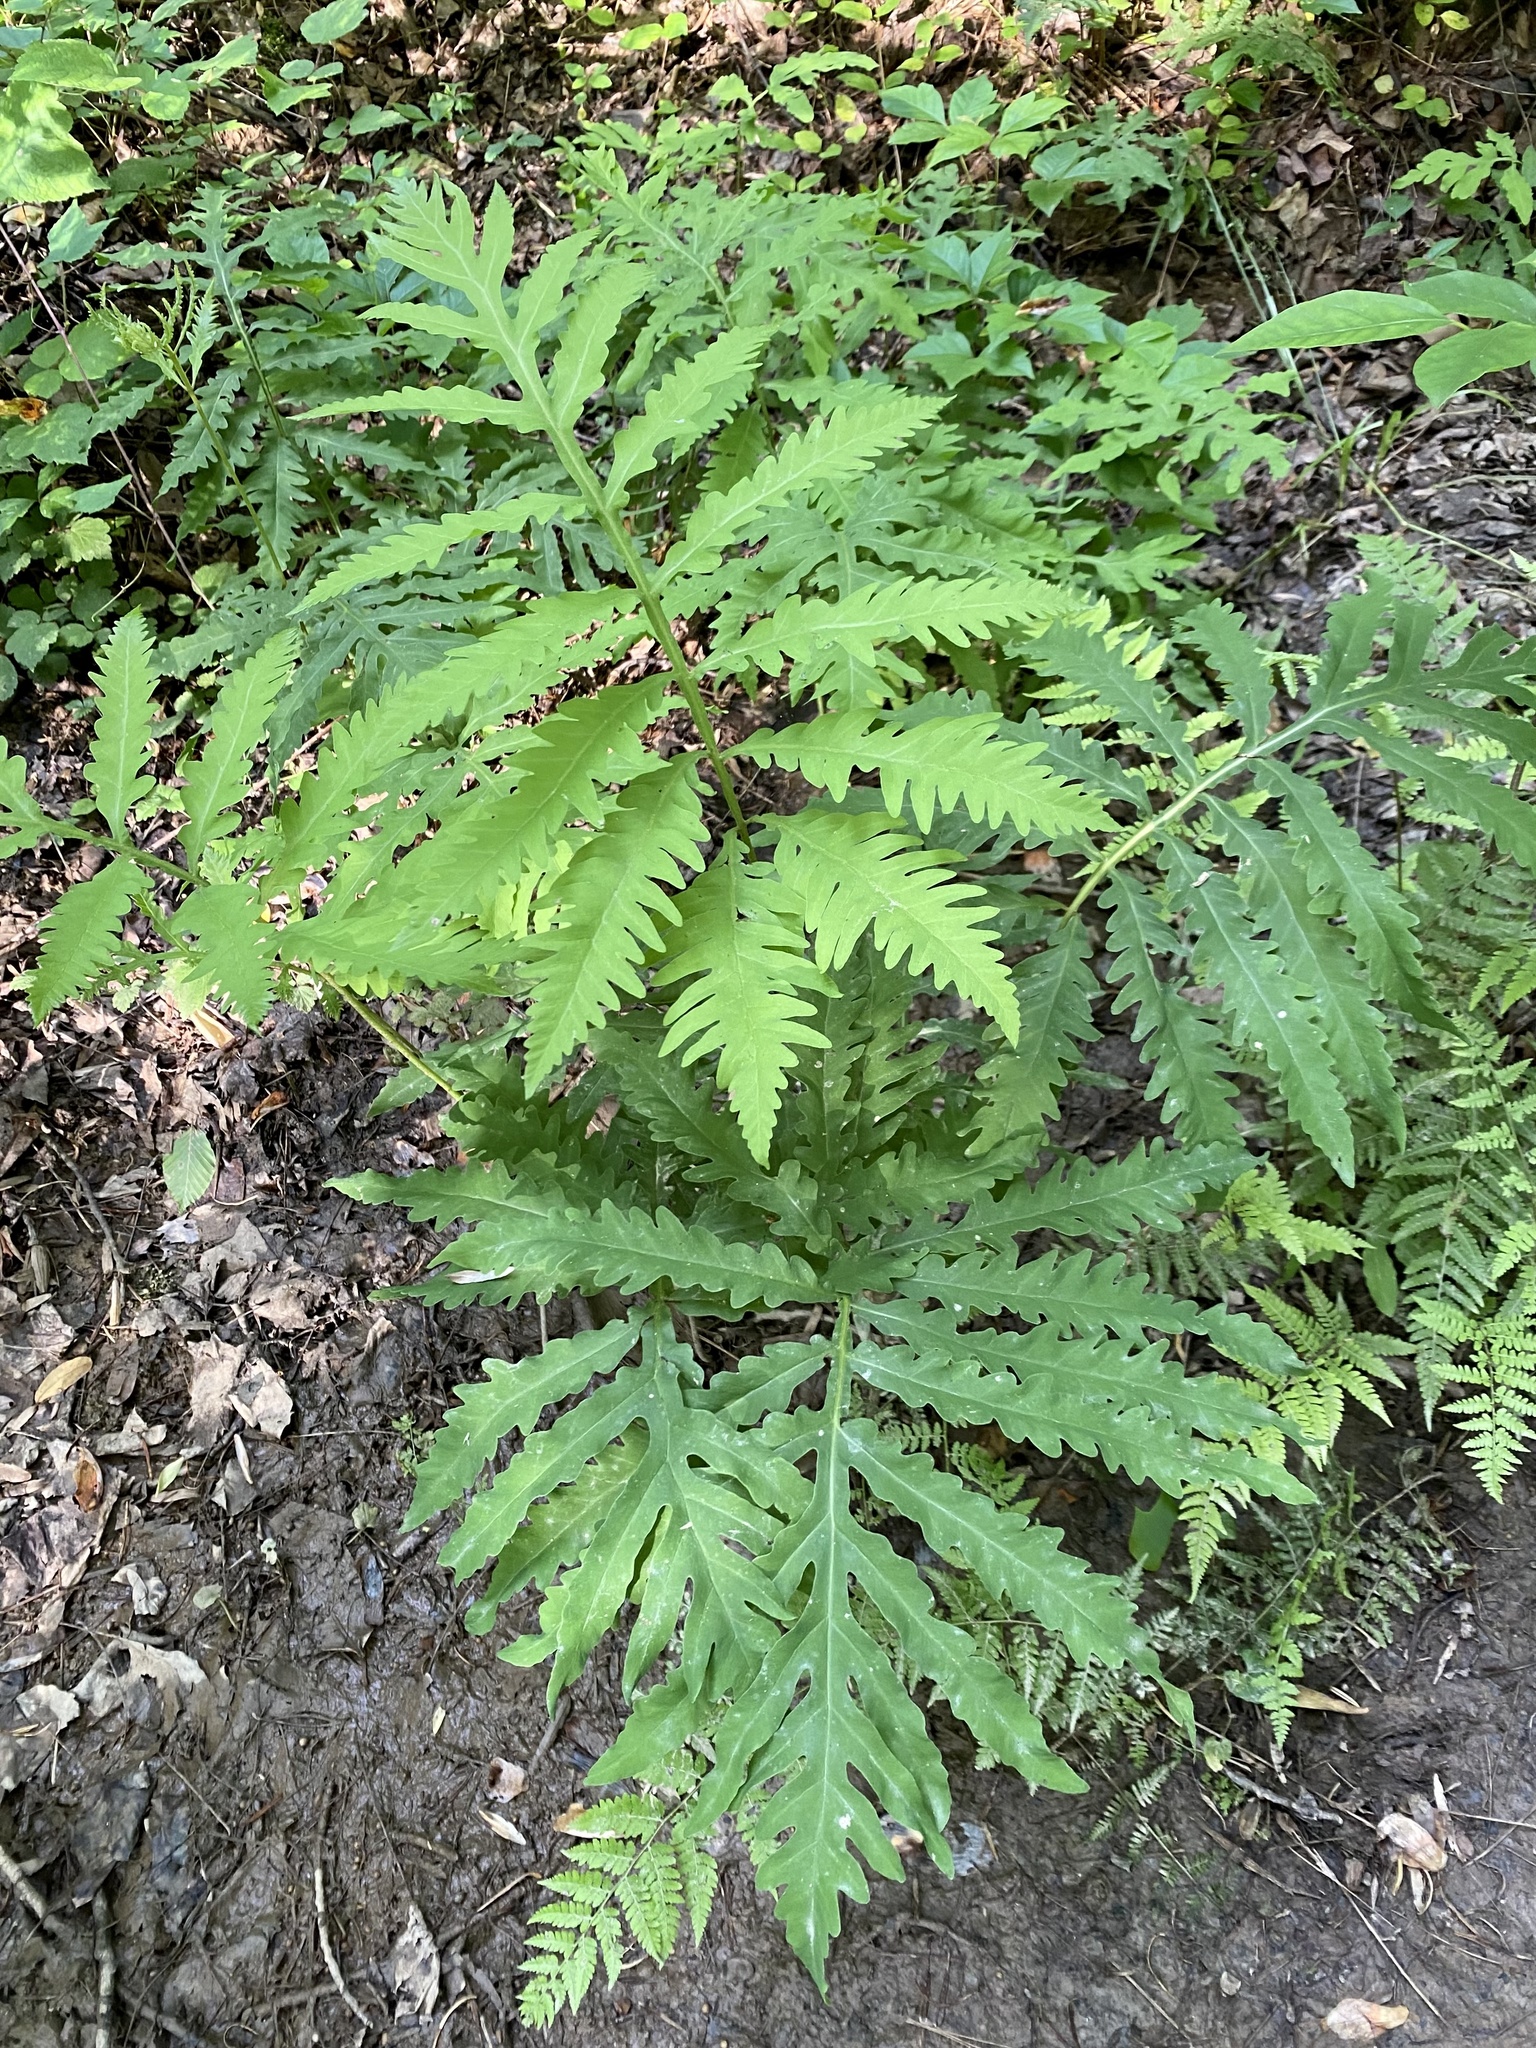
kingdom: Plantae
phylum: Tracheophyta
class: Polypodiopsida
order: Polypodiales
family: Onocleaceae
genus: Onoclea
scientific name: Onoclea sensibilis
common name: Sensitive fern
